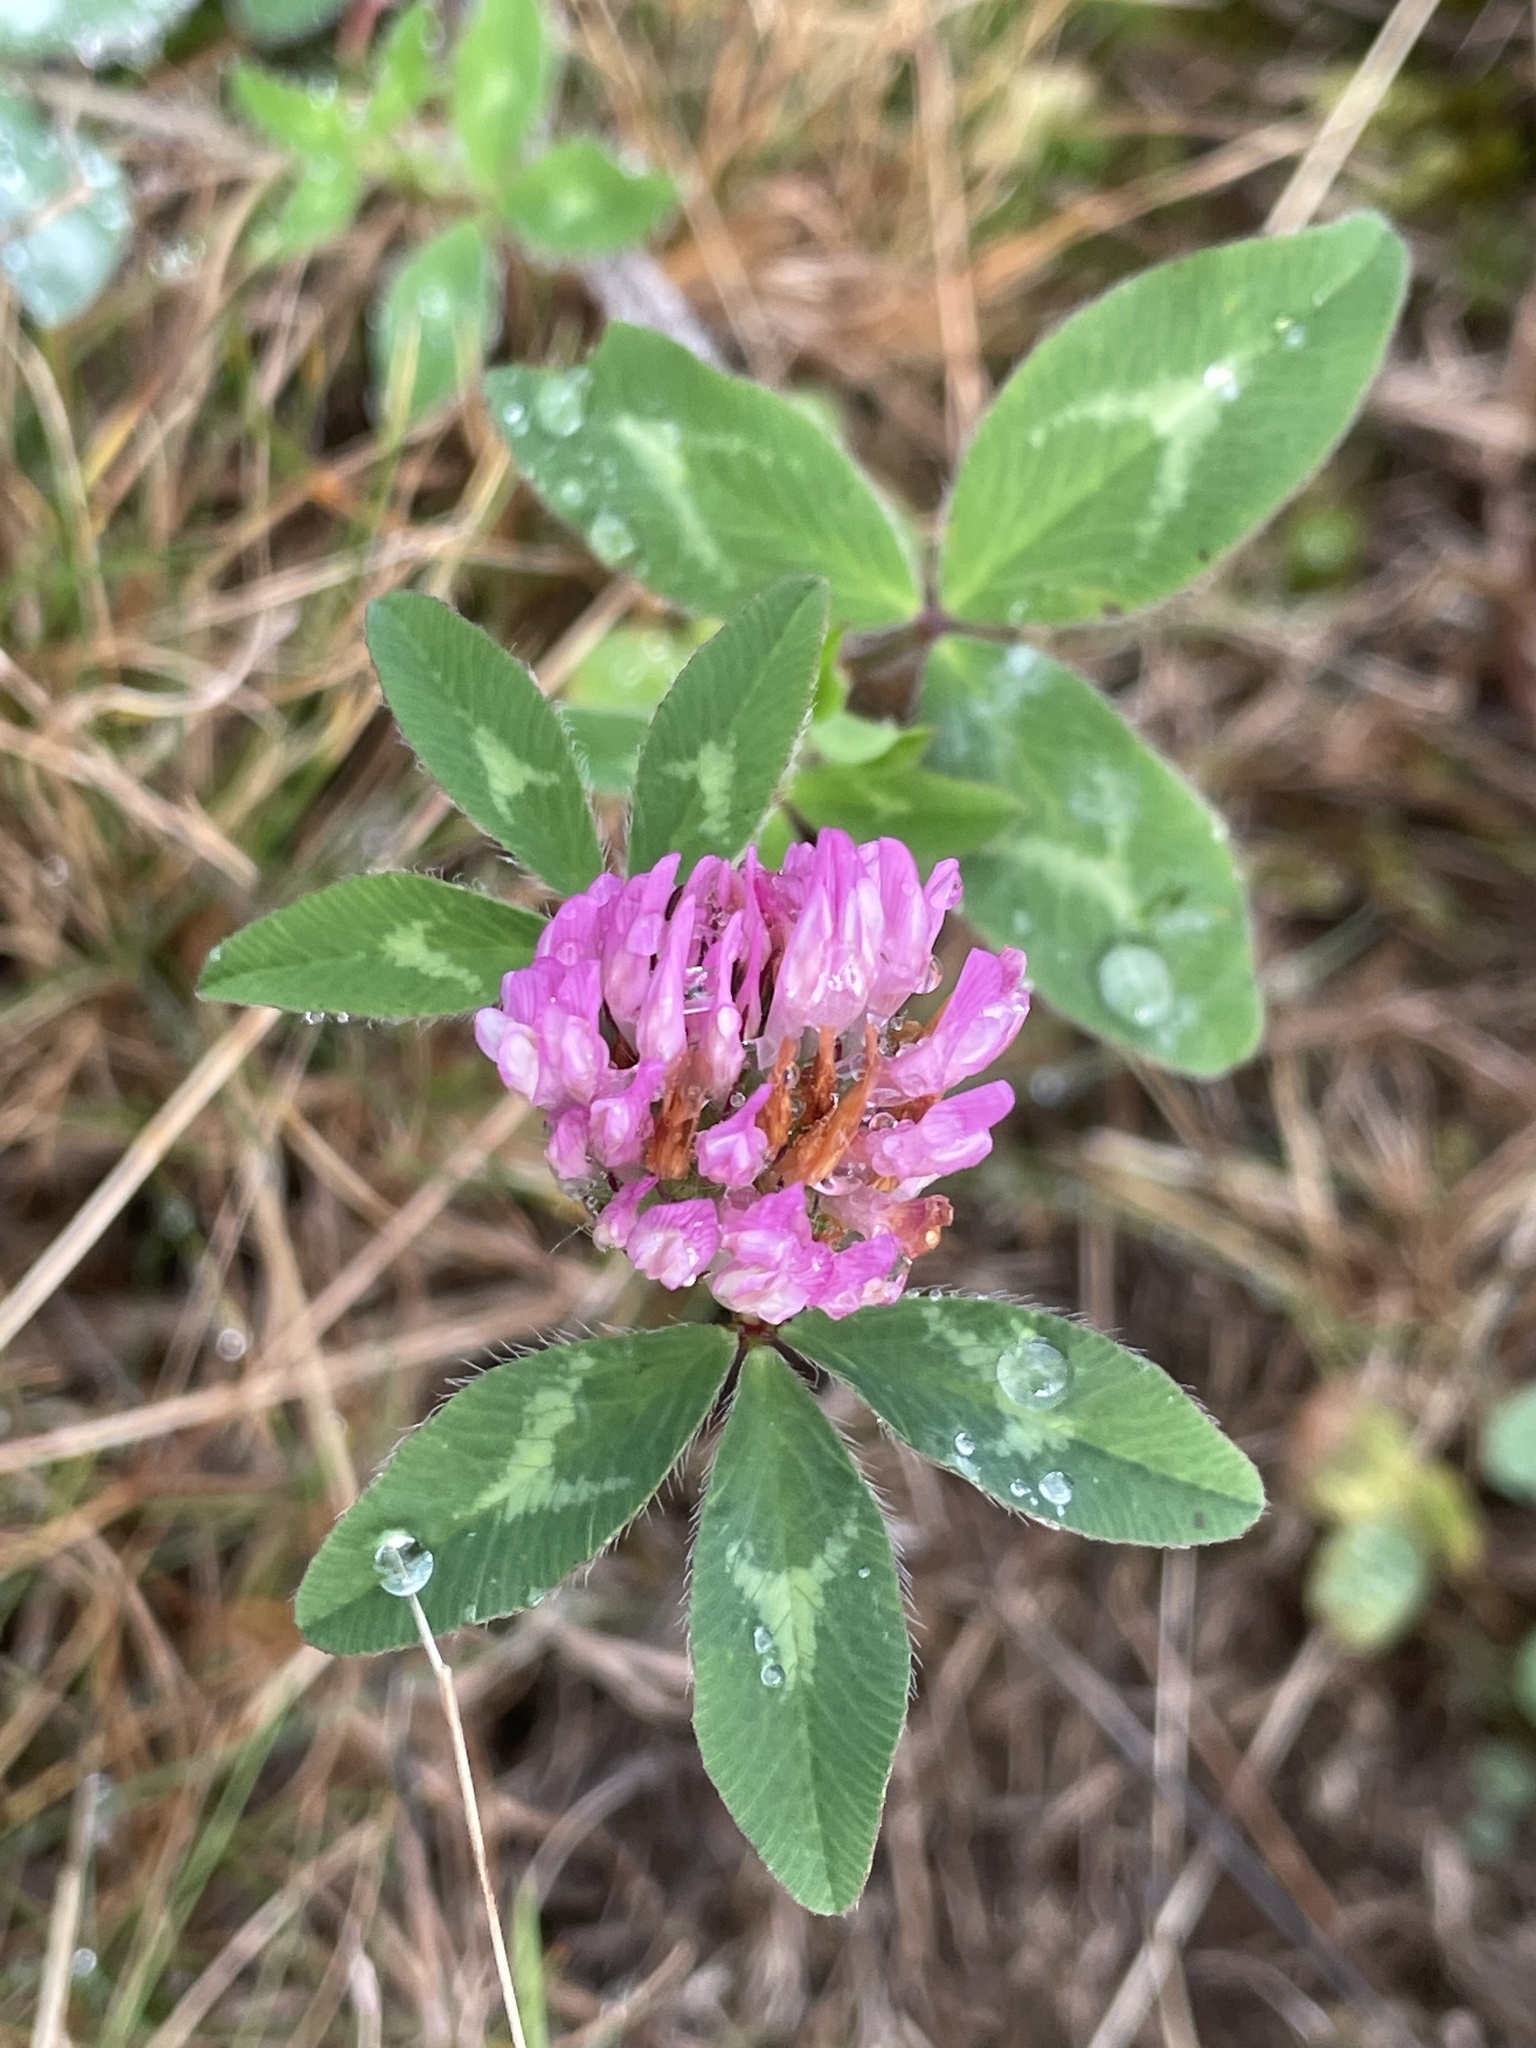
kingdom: Plantae
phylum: Tracheophyta
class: Magnoliopsida
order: Fabales
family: Fabaceae
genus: Trifolium
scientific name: Trifolium pratense
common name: Red clover
